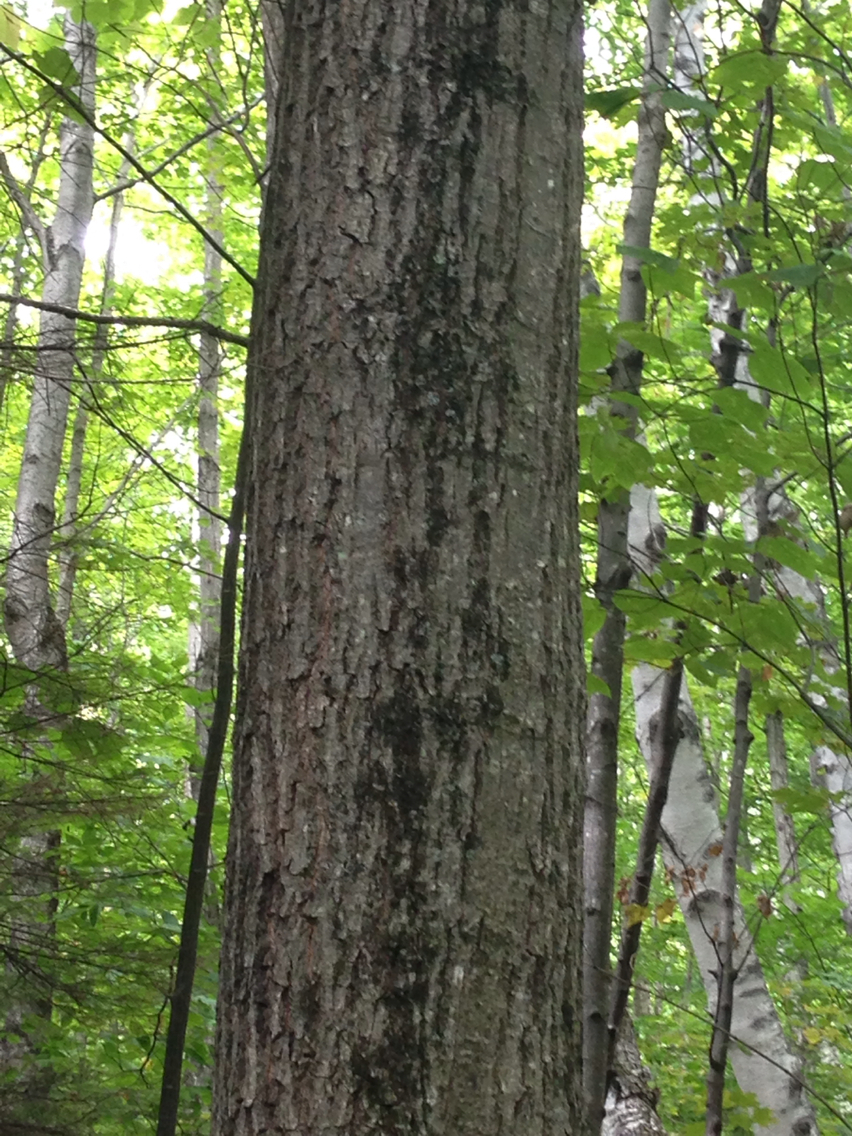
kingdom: Plantae
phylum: Tracheophyta
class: Magnoliopsida
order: Fagales
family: Fagaceae
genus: Quercus
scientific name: Quercus rubra
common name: Red oak
